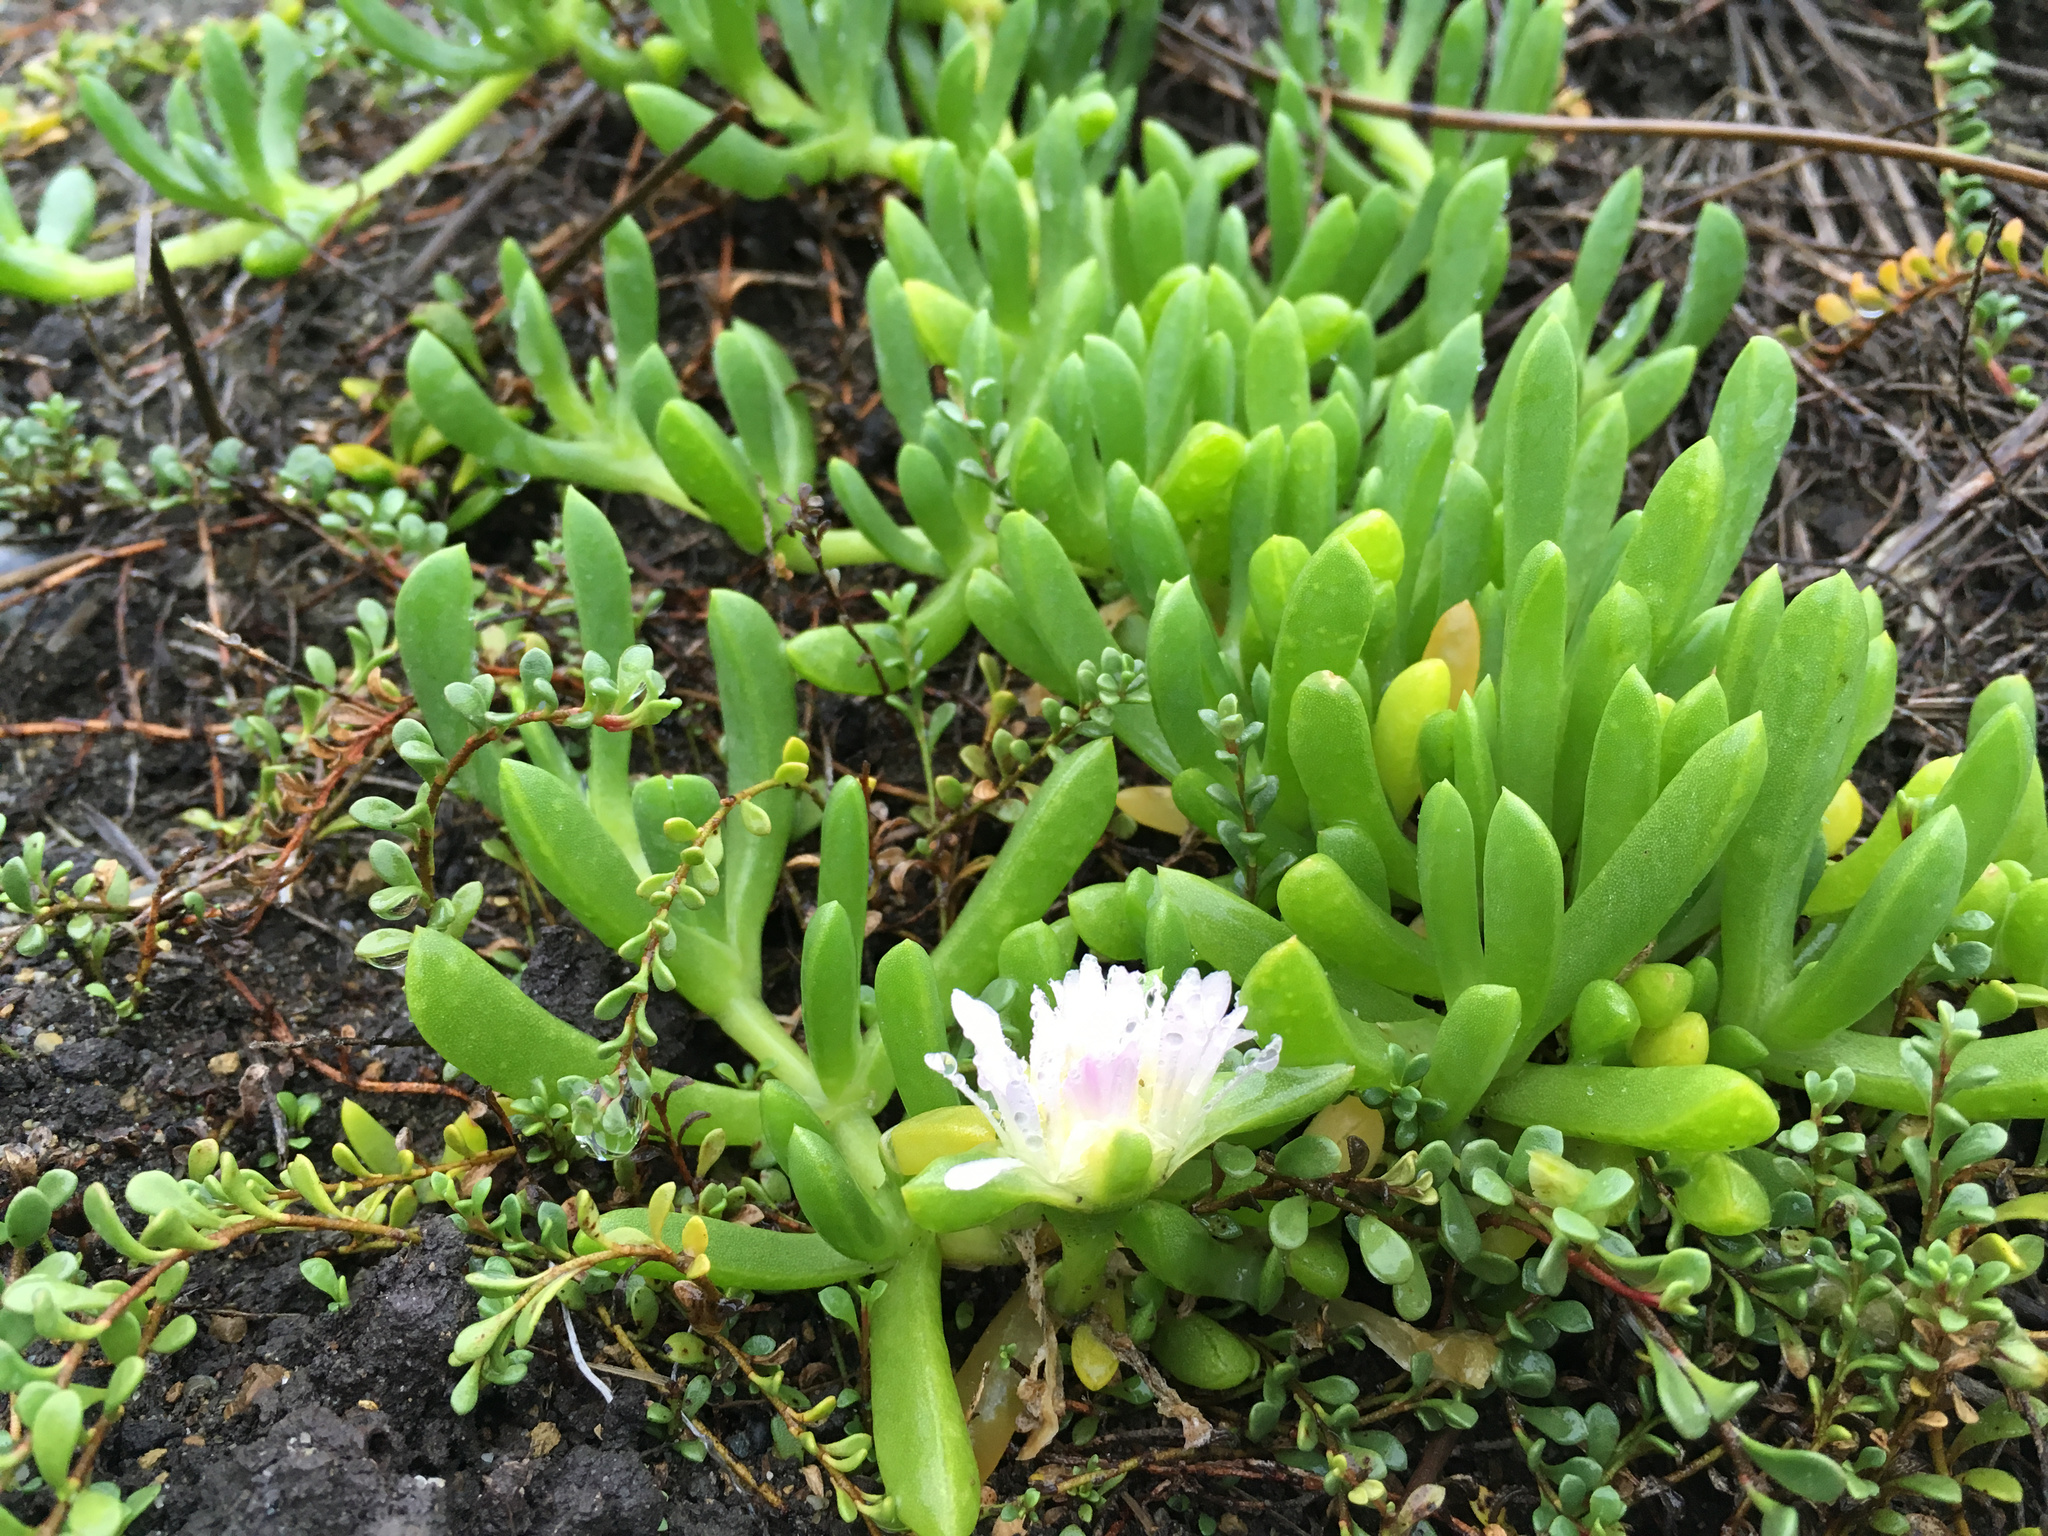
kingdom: Plantae
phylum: Tracheophyta
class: Magnoliopsida
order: Caryophyllales
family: Aizoaceae
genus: Disphyma
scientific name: Disphyma australe
